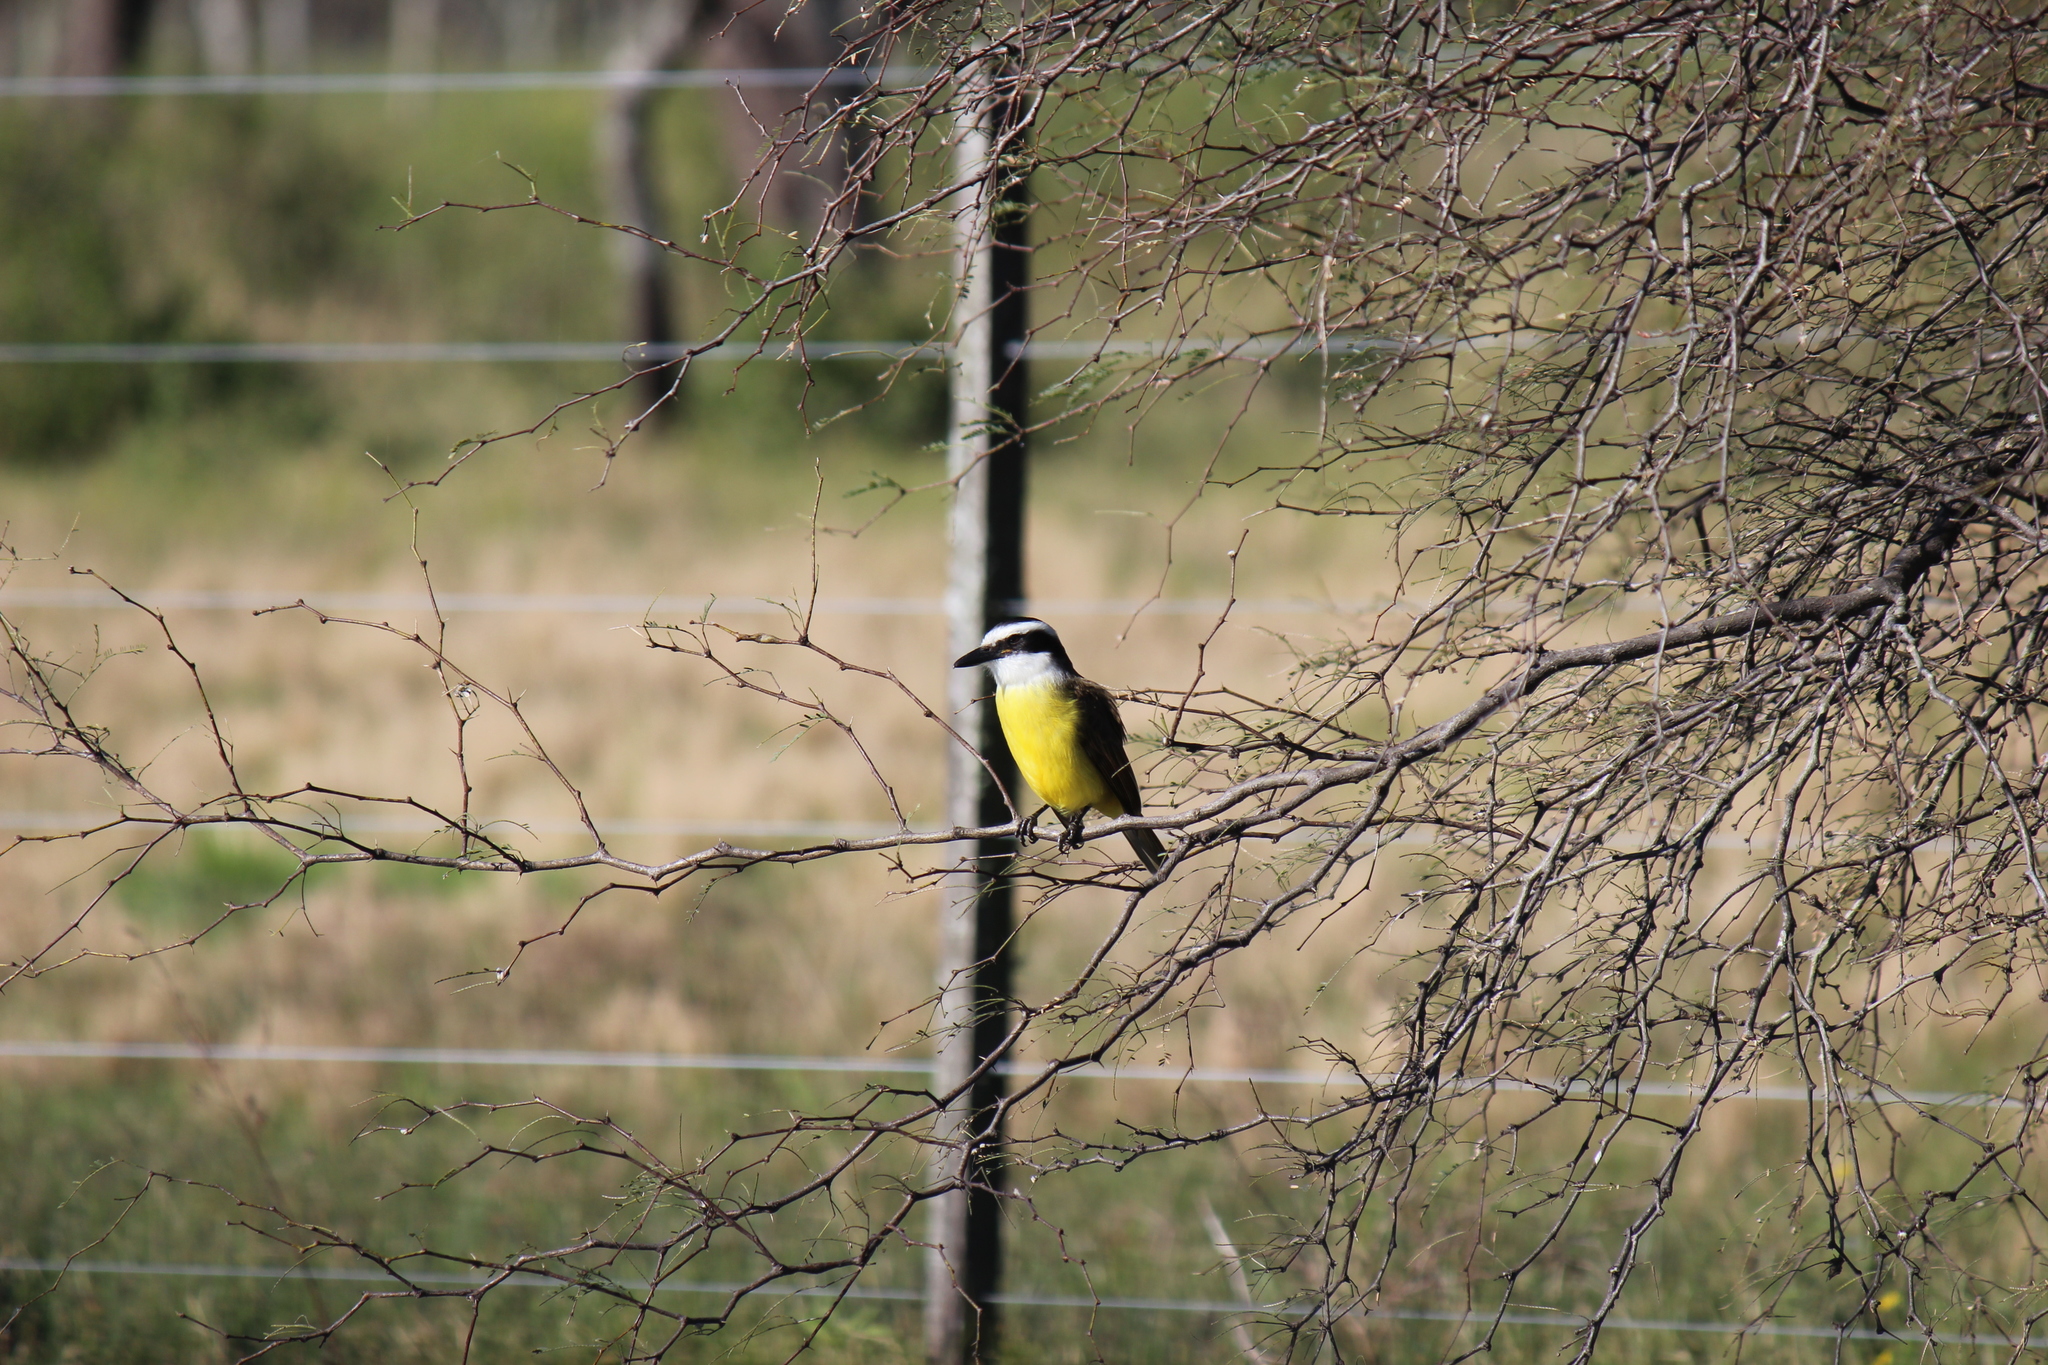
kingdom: Animalia
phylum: Chordata
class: Aves
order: Passeriformes
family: Tyrannidae
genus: Pitangus
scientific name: Pitangus sulphuratus
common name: Great kiskadee
